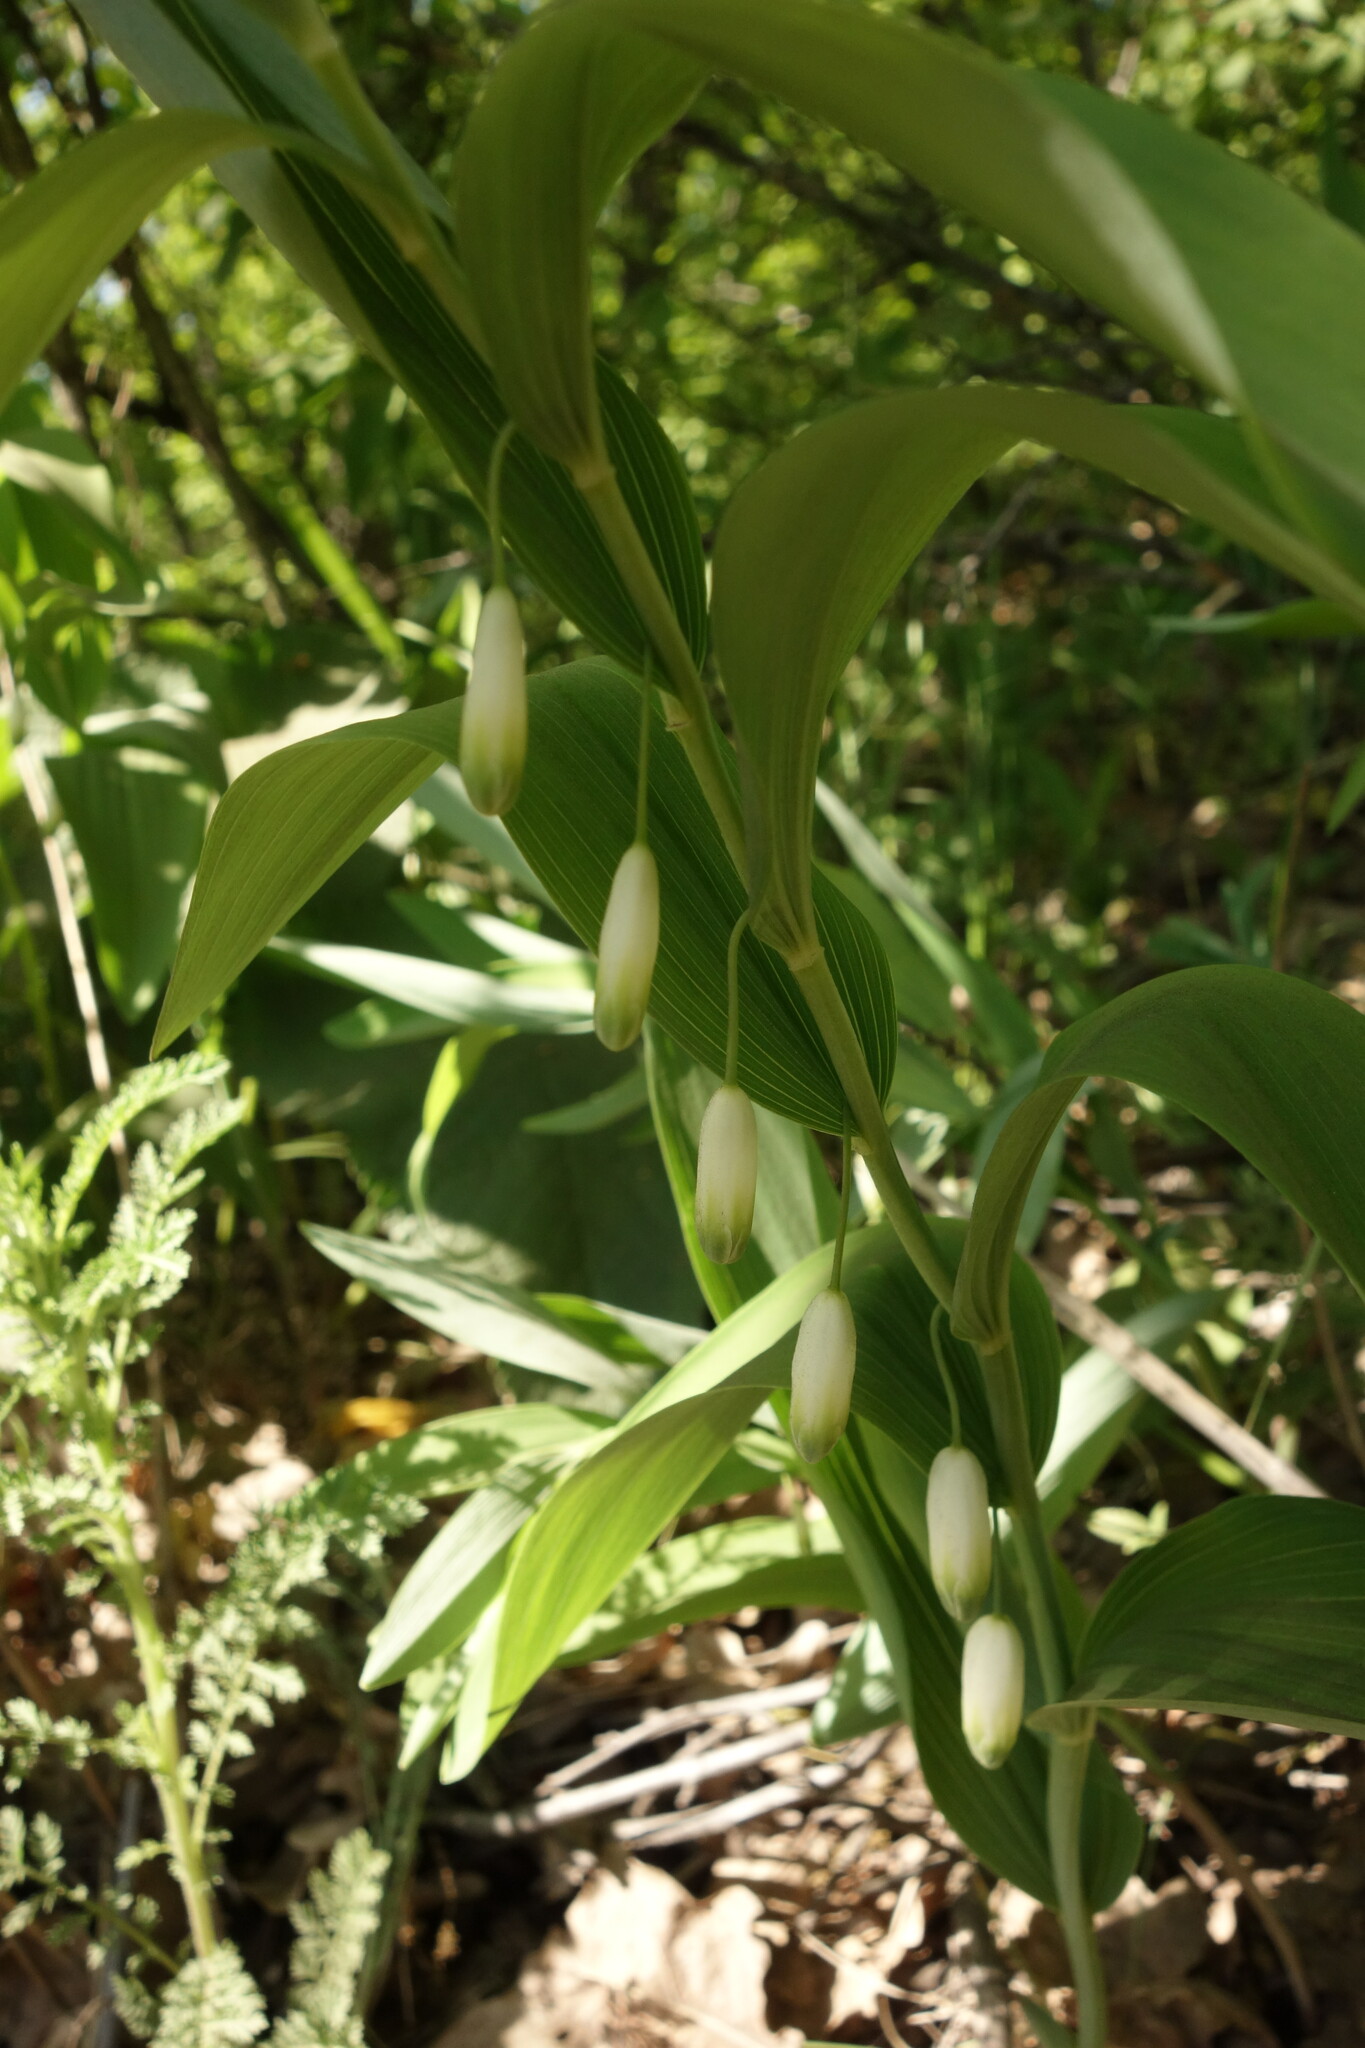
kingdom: Plantae
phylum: Tracheophyta
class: Liliopsida
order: Asparagales
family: Asparagaceae
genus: Polygonatum
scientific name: Polygonatum odoratum
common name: Angular solomon's-seal
